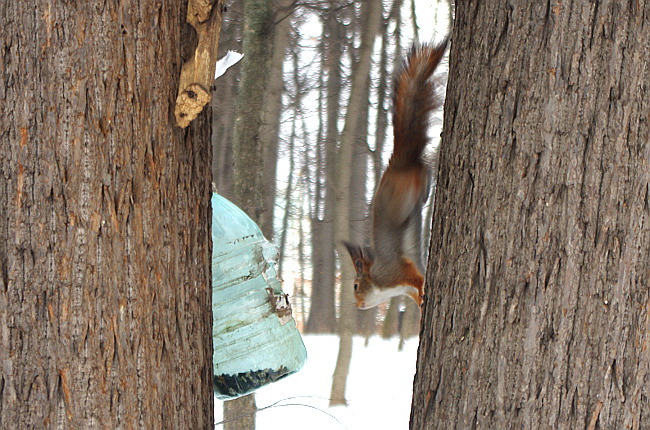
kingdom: Animalia
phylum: Chordata
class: Mammalia
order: Rodentia
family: Sciuridae
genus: Sciurus
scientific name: Sciurus vulgaris
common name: Eurasian red squirrel
